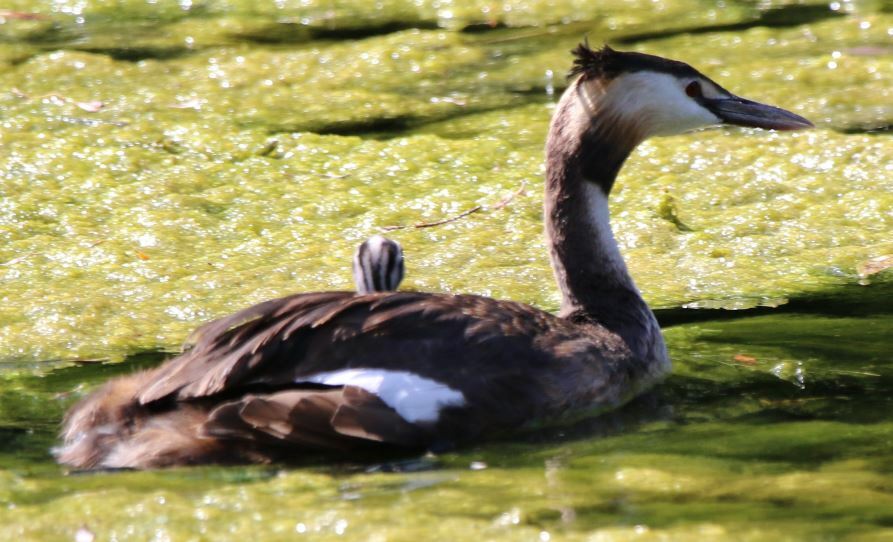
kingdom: Animalia
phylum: Chordata
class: Aves
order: Podicipediformes
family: Podicipedidae
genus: Podiceps
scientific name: Podiceps cristatus
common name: Great crested grebe
